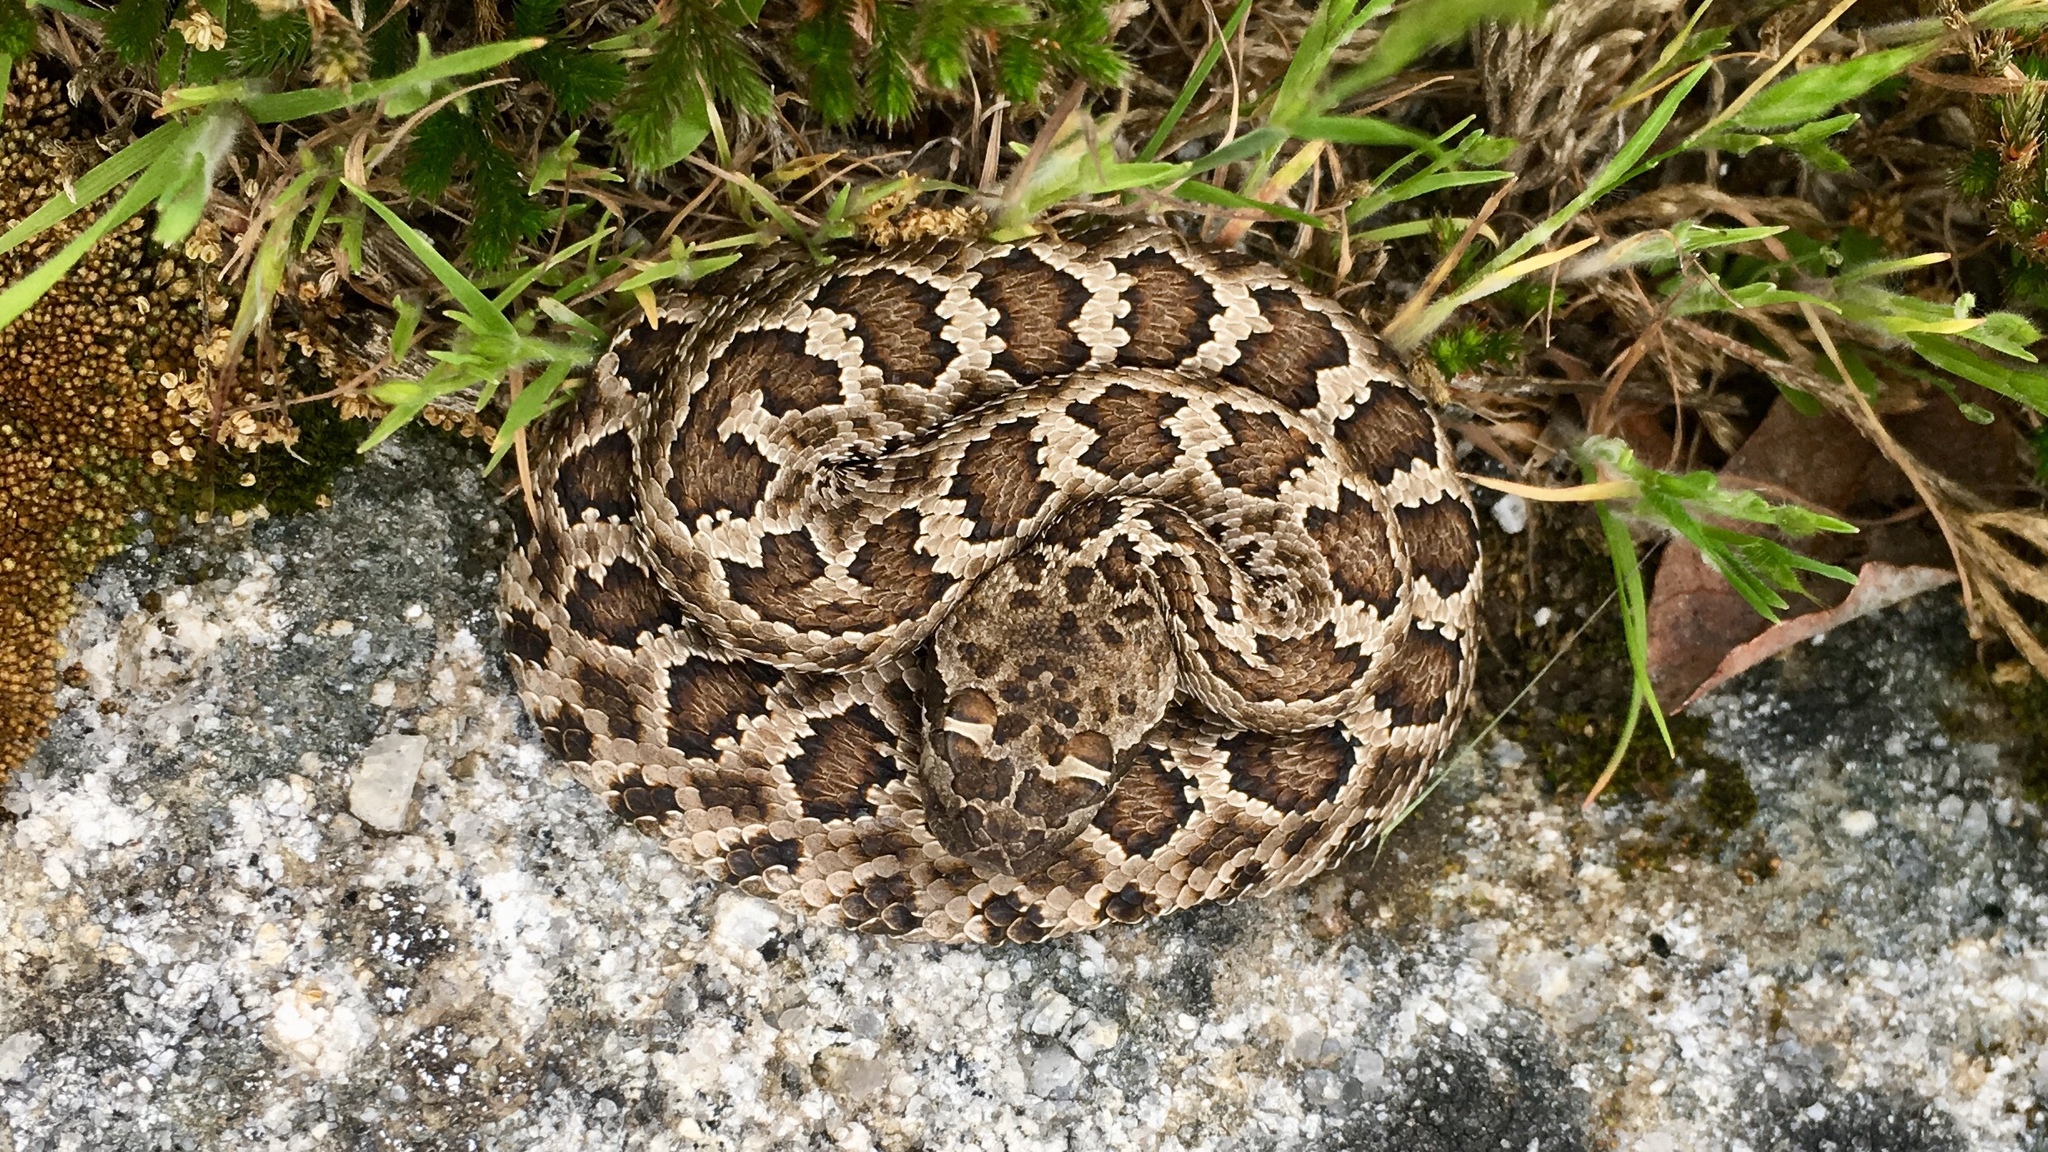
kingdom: Animalia
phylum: Chordata
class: Squamata
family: Viperidae
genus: Crotalus
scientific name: Crotalus oreganus
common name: Abyssus
